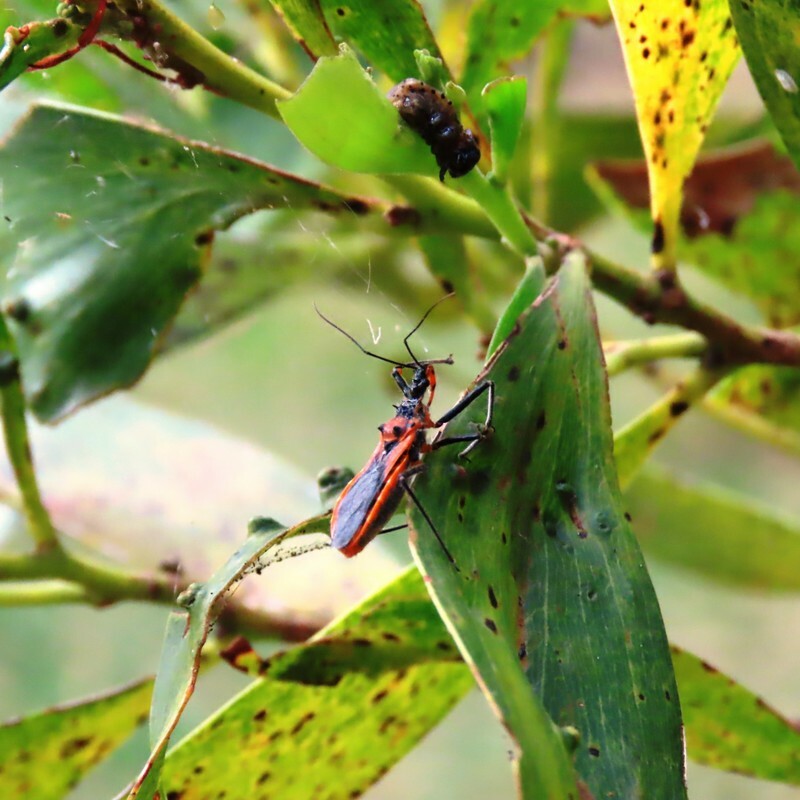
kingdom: Animalia
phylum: Arthropoda
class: Insecta
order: Hemiptera
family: Reduviidae
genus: Gminatus
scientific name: Gminatus australis
